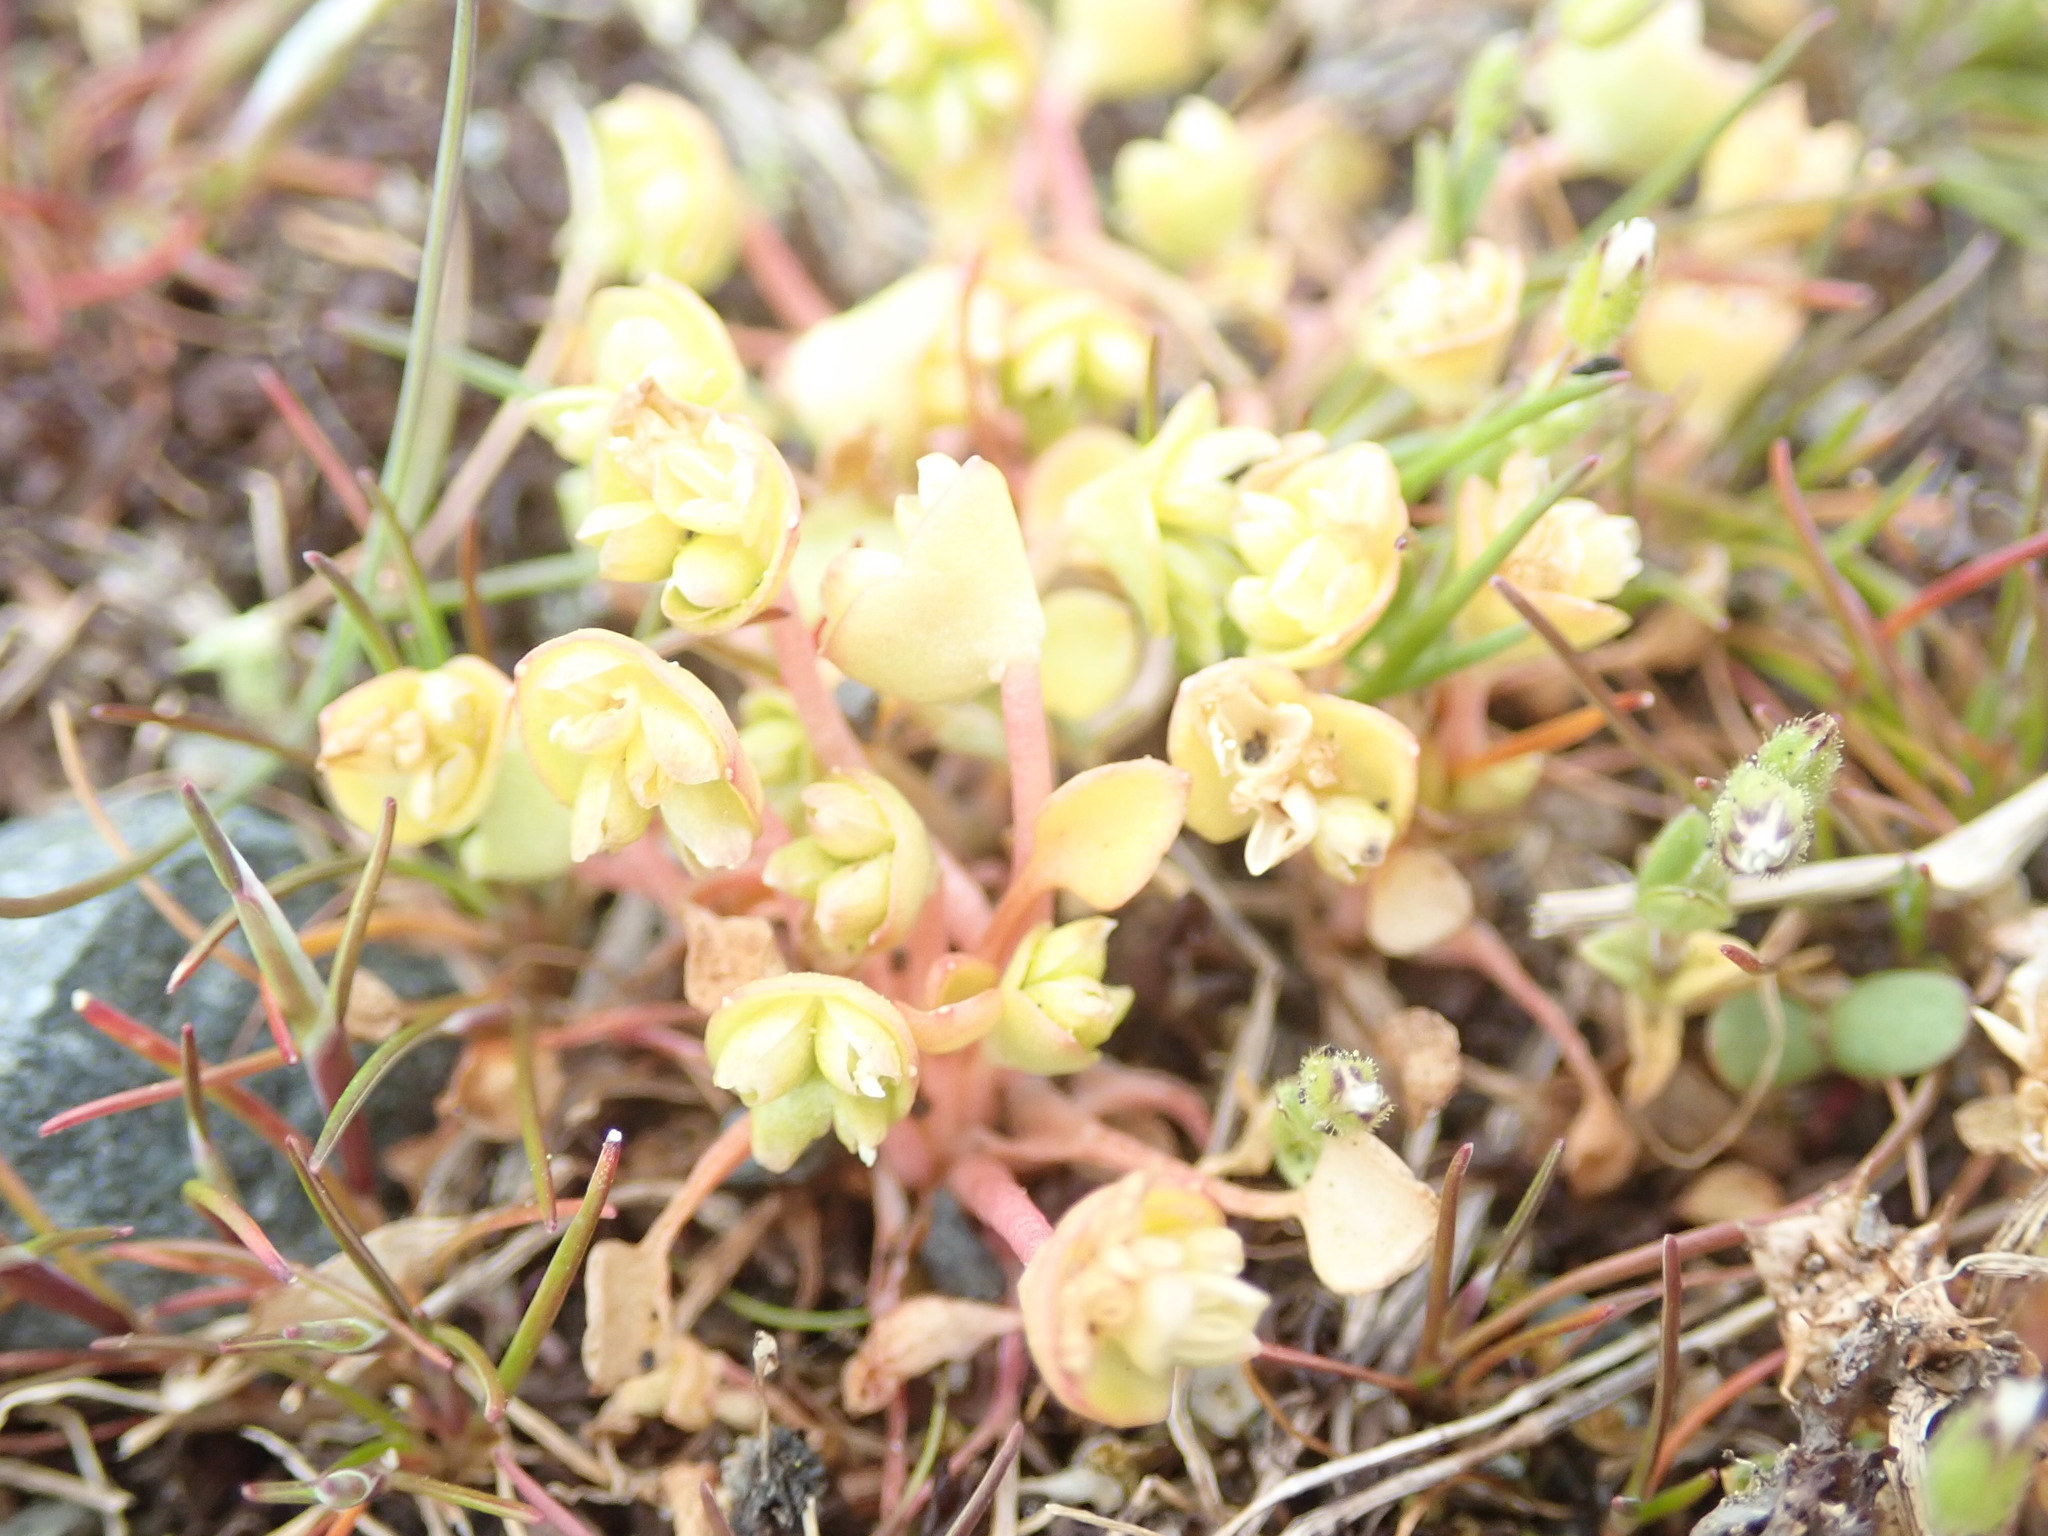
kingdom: Plantae
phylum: Tracheophyta
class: Magnoliopsida
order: Caryophyllales
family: Montiaceae
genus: Claytonia
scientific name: Claytonia rubra
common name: Erubescent miner's-lettuce
